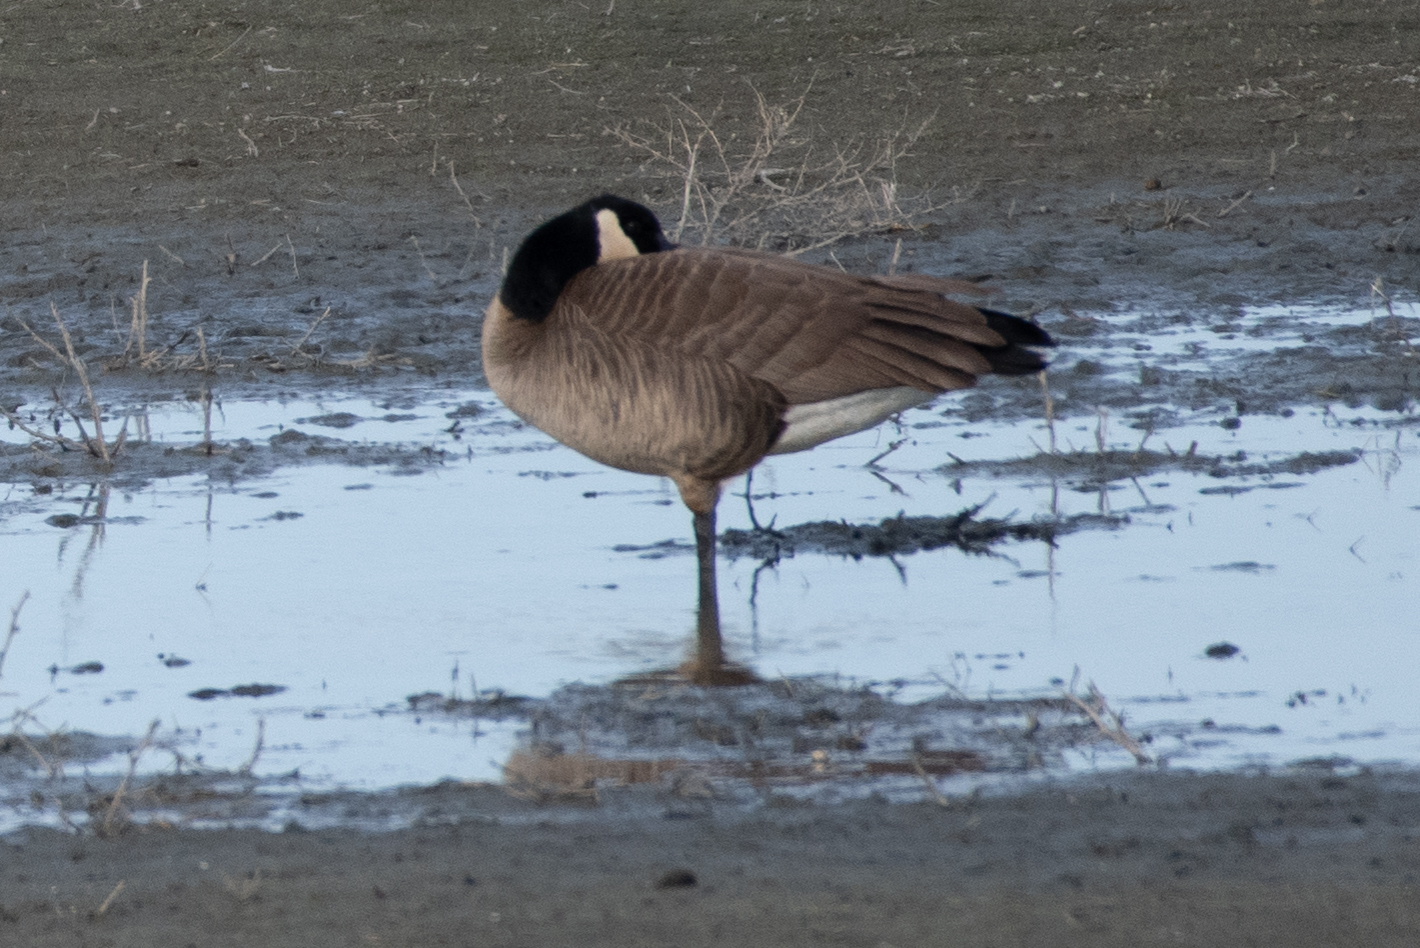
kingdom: Animalia
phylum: Chordata
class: Aves
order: Anseriformes
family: Anatidae
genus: Branta
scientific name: Branta canadensis
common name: Canada goose
